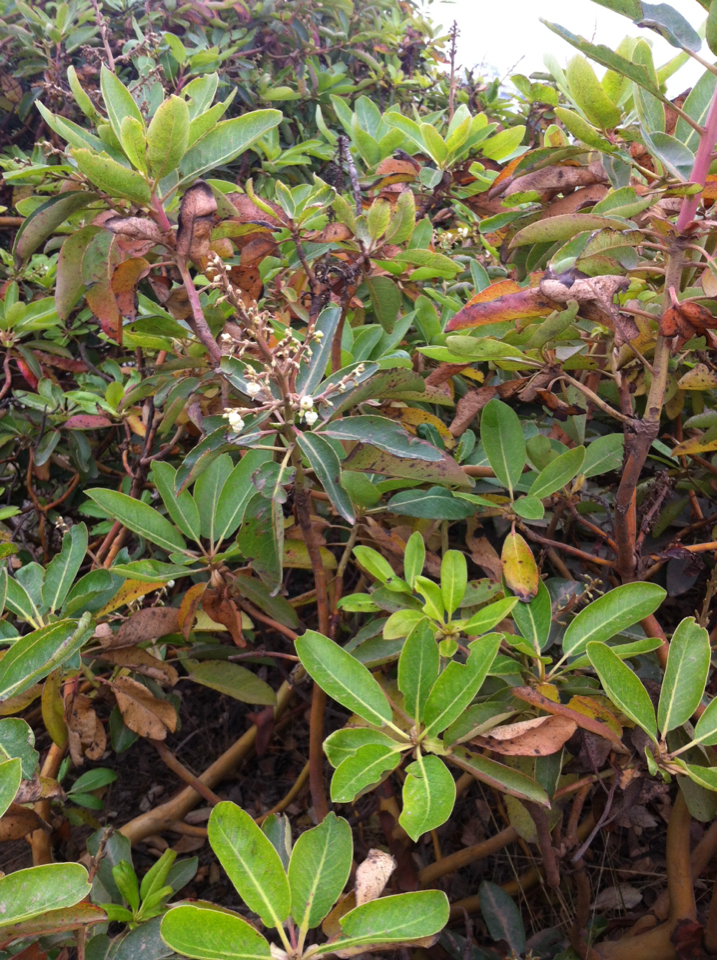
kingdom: Plantae
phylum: Tracheophyta
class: Magnoliopsida
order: Ericales
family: Ericaceae
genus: Arbutus
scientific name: Arbutus menziesii
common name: Pacific madrone
